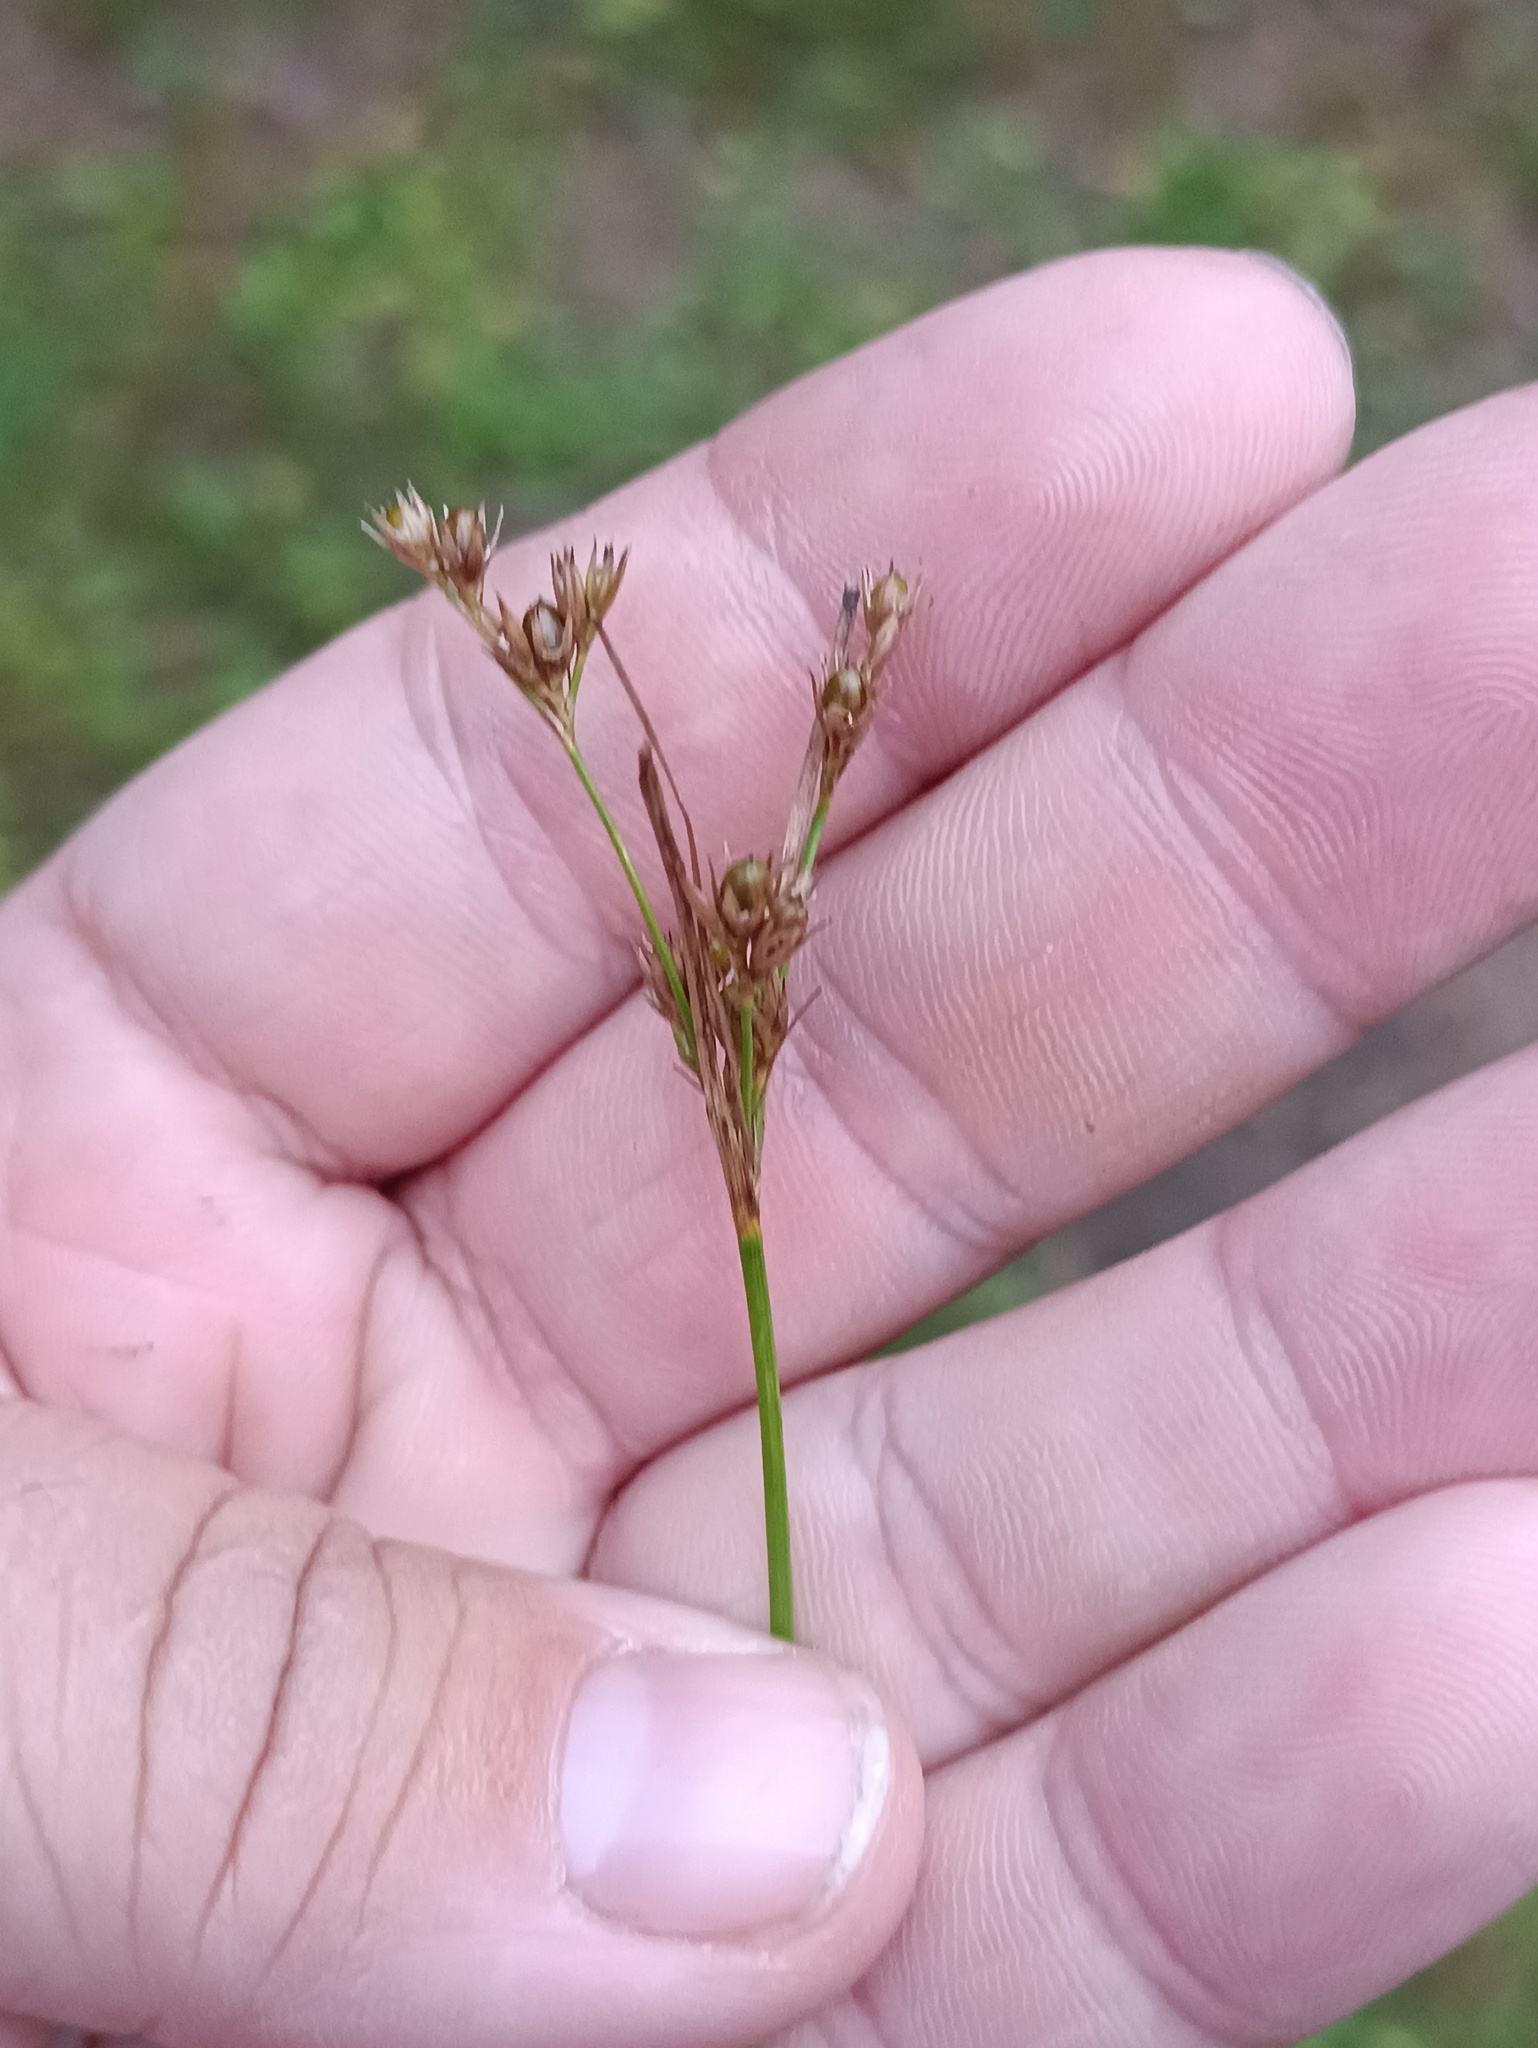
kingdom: Plantae
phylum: Tracheophyta
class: Liliopsida
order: Poales
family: Juncaceae
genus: Juncus
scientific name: Juncus tenuis
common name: Slender rush
